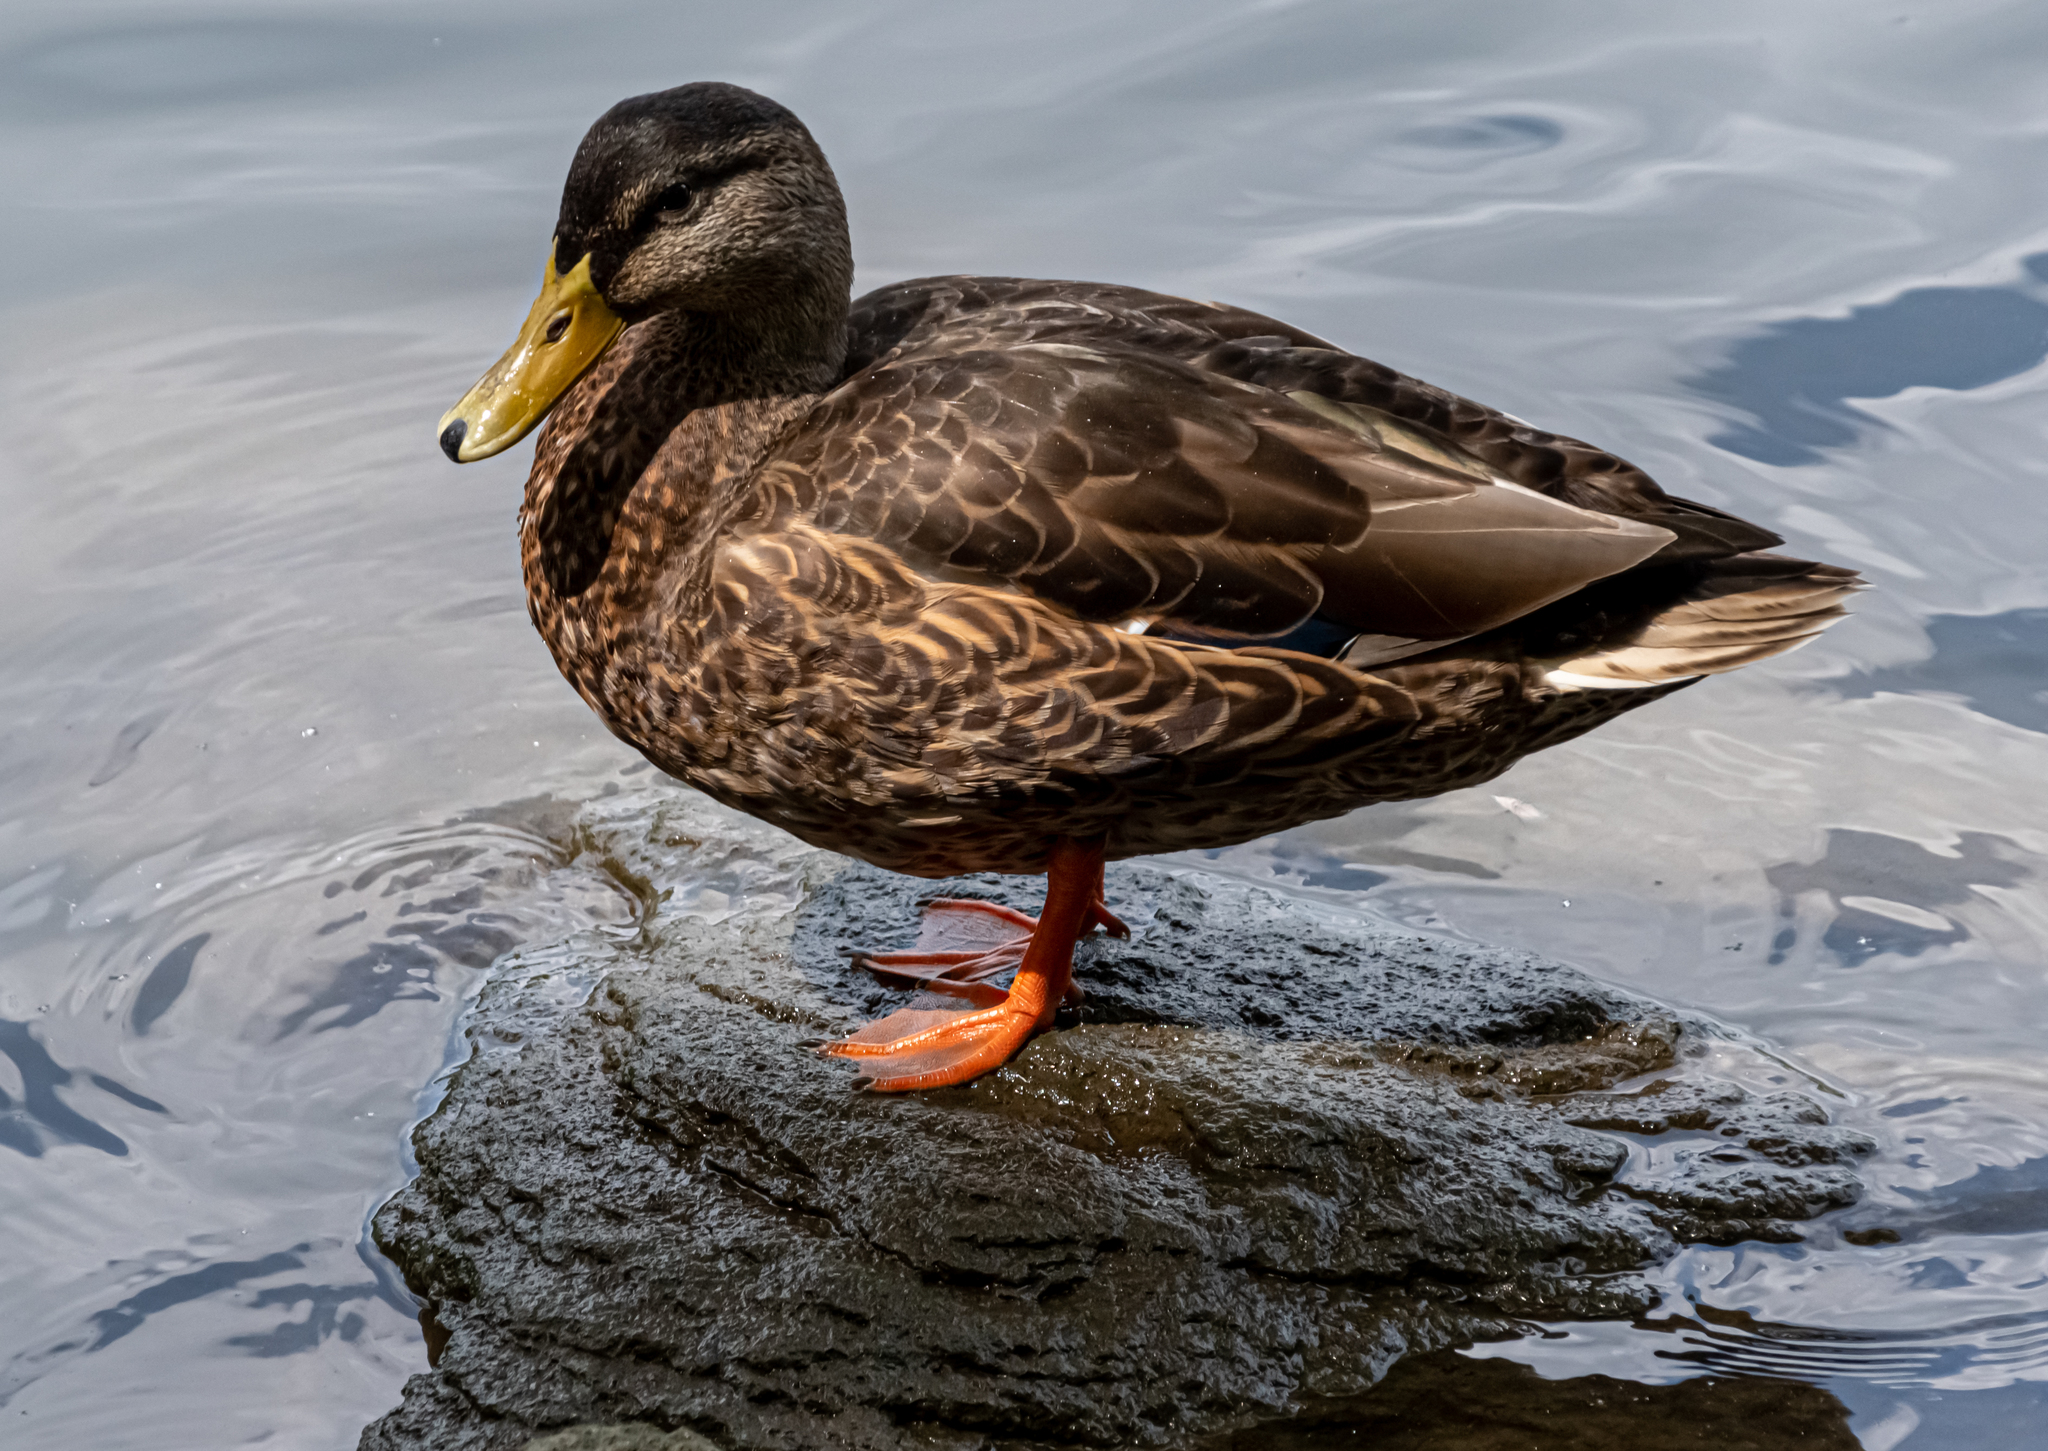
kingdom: Animalia
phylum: Chordata
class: Aves
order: Anseriformes
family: Anatidae
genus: Anas
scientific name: Anas
